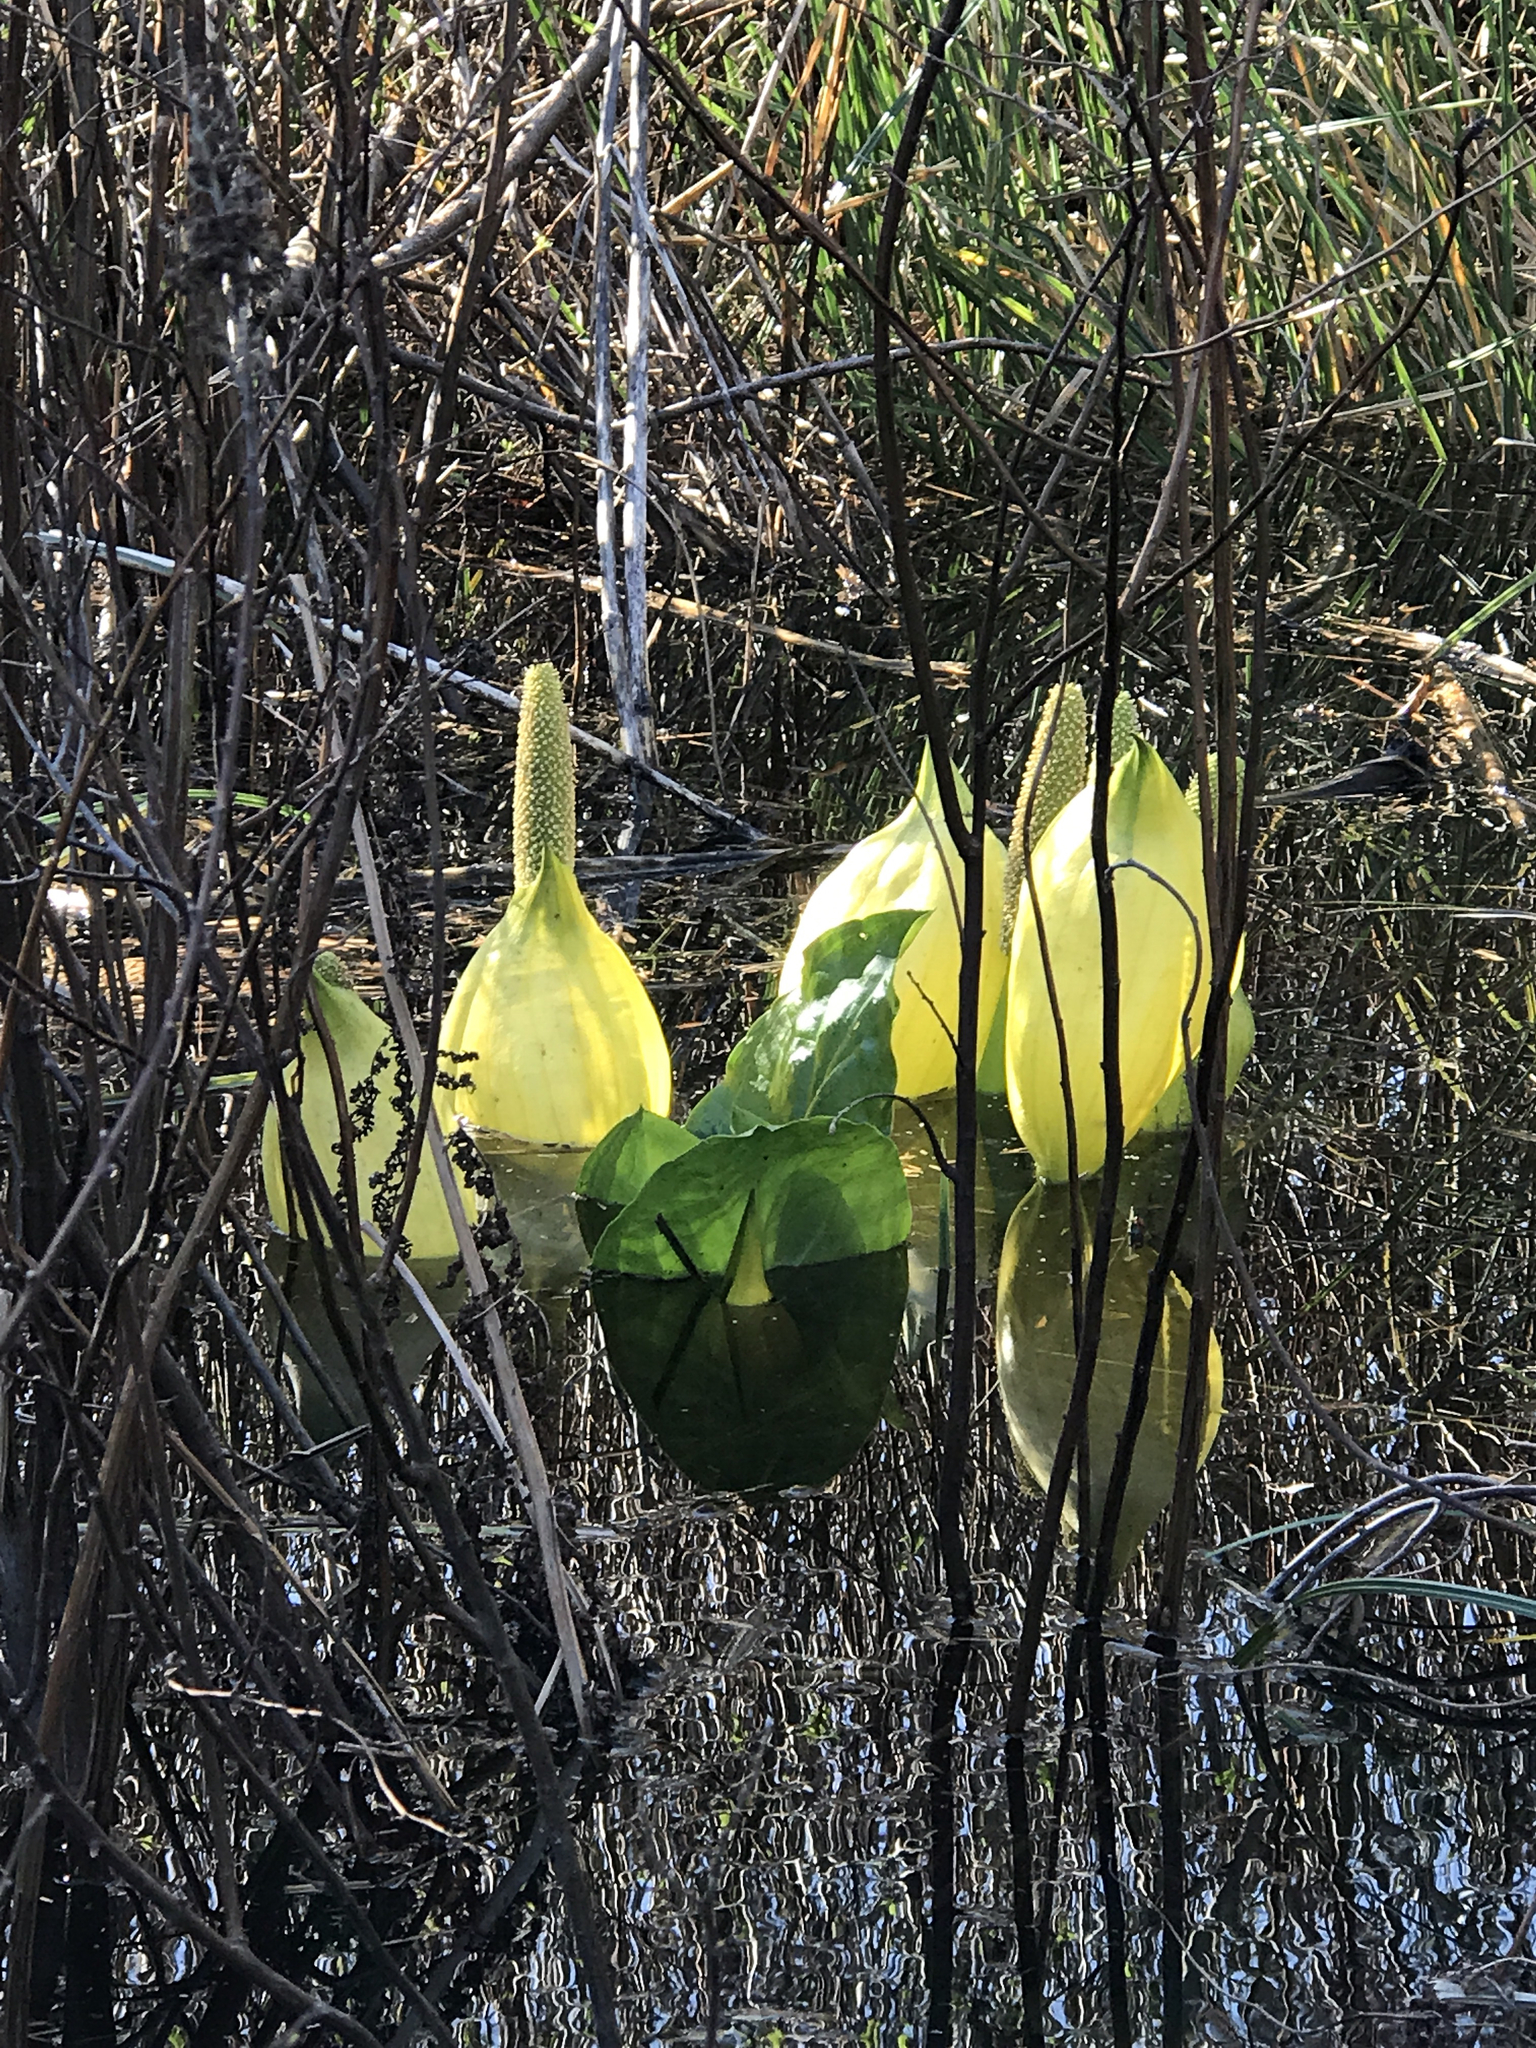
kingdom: Plantae
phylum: Tracheophyta
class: Liliopsida
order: Alismatales
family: Araceae
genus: Lysichiton
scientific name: Lysichiton americanus
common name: American skunk cabbage
